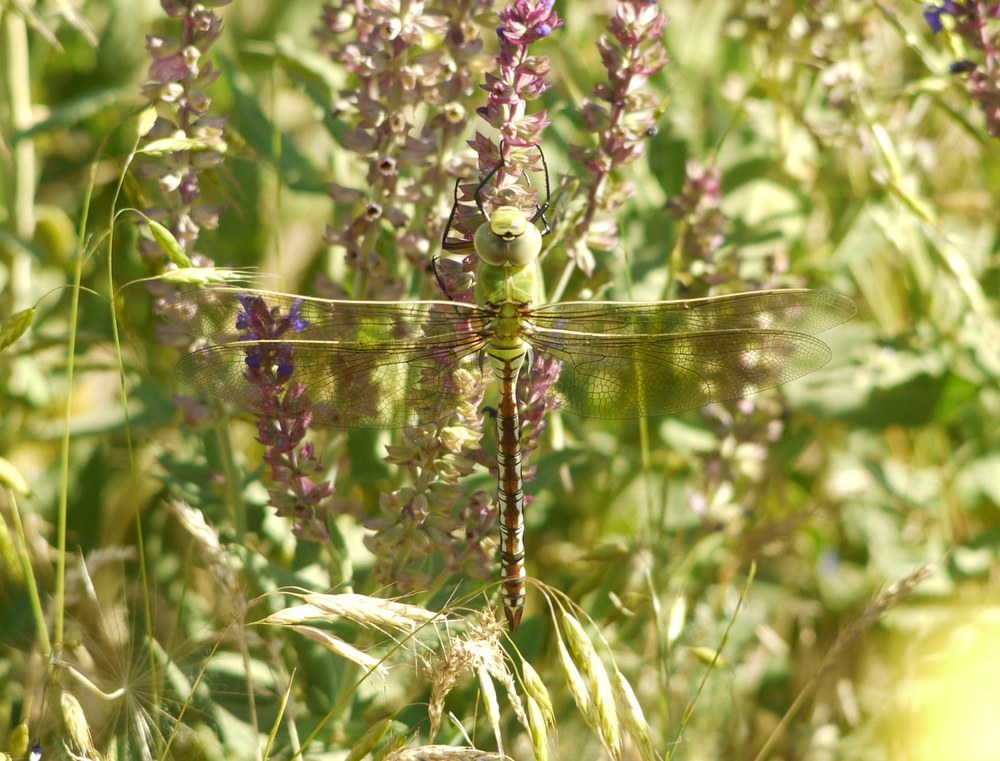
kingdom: Animalia
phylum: Arthropoda
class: Insecta
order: Odonata
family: Aeshnidae
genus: Anax
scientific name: Anax imperator
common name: Emperor dragonfly
